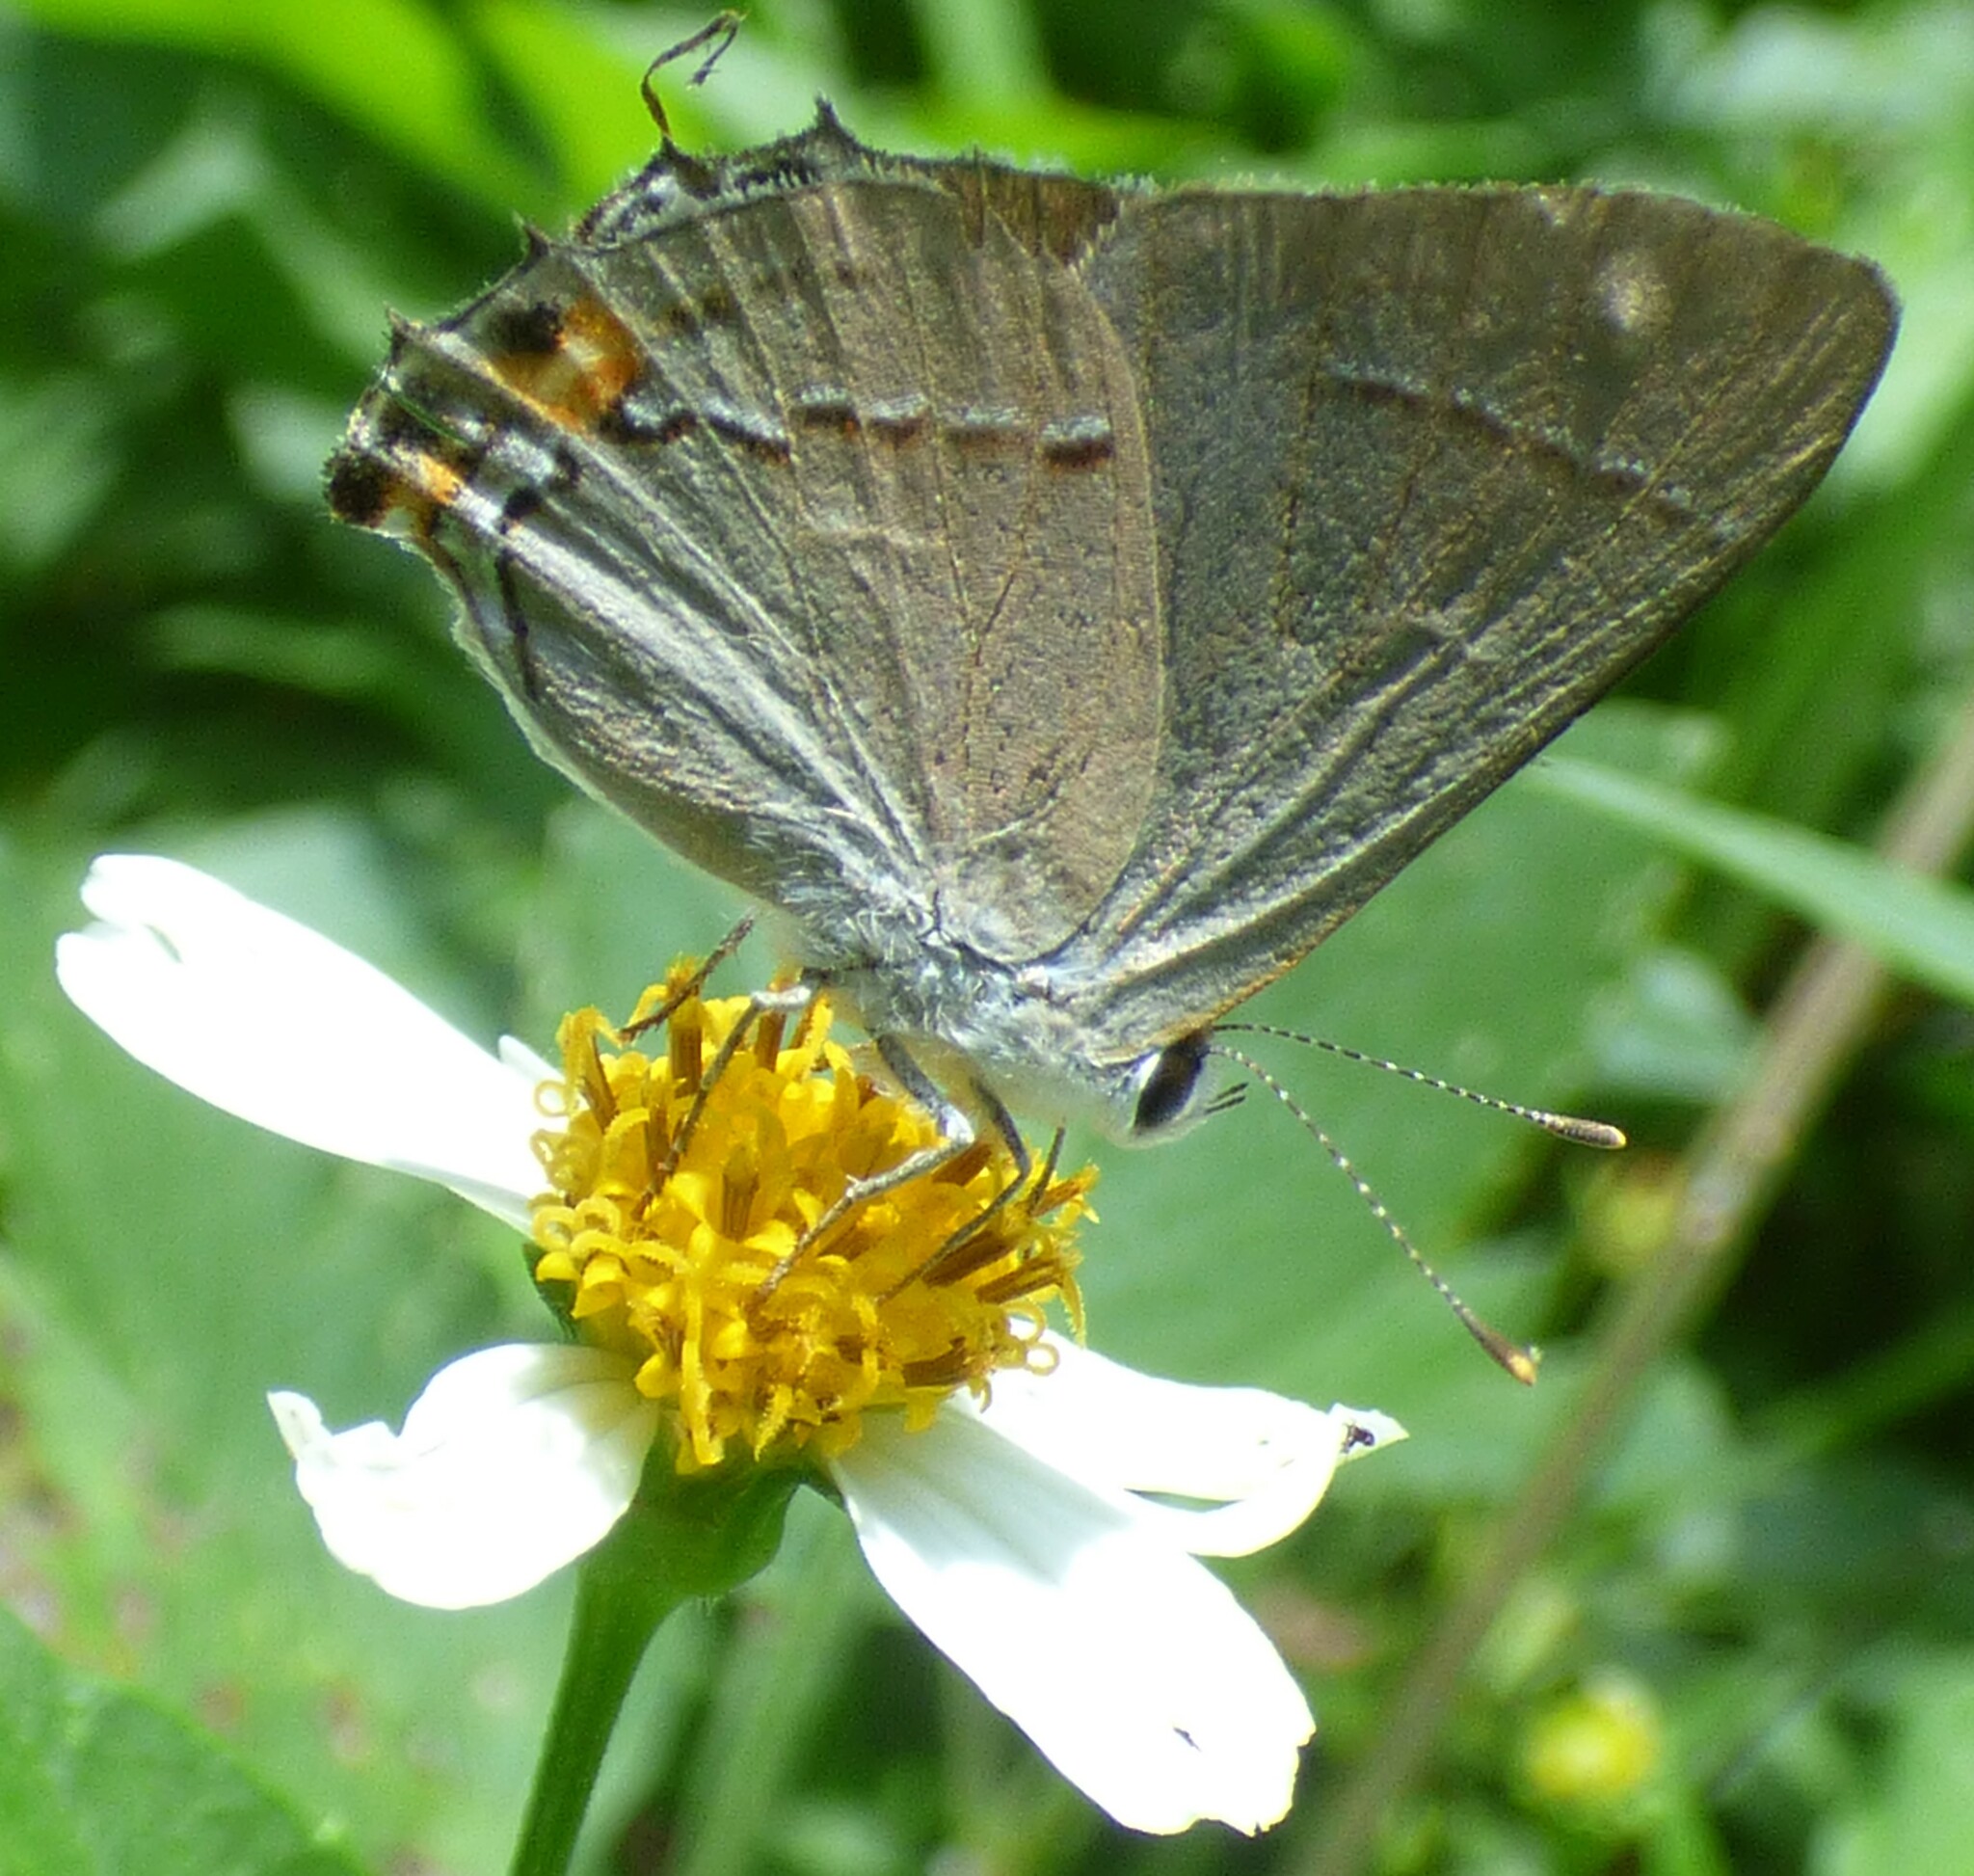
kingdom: Animalia
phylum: Arthropoda
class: Insecta
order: Lepidoptera
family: Lycaenidae
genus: Strymon
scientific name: Strymon melinus
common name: Gray hairstreak
